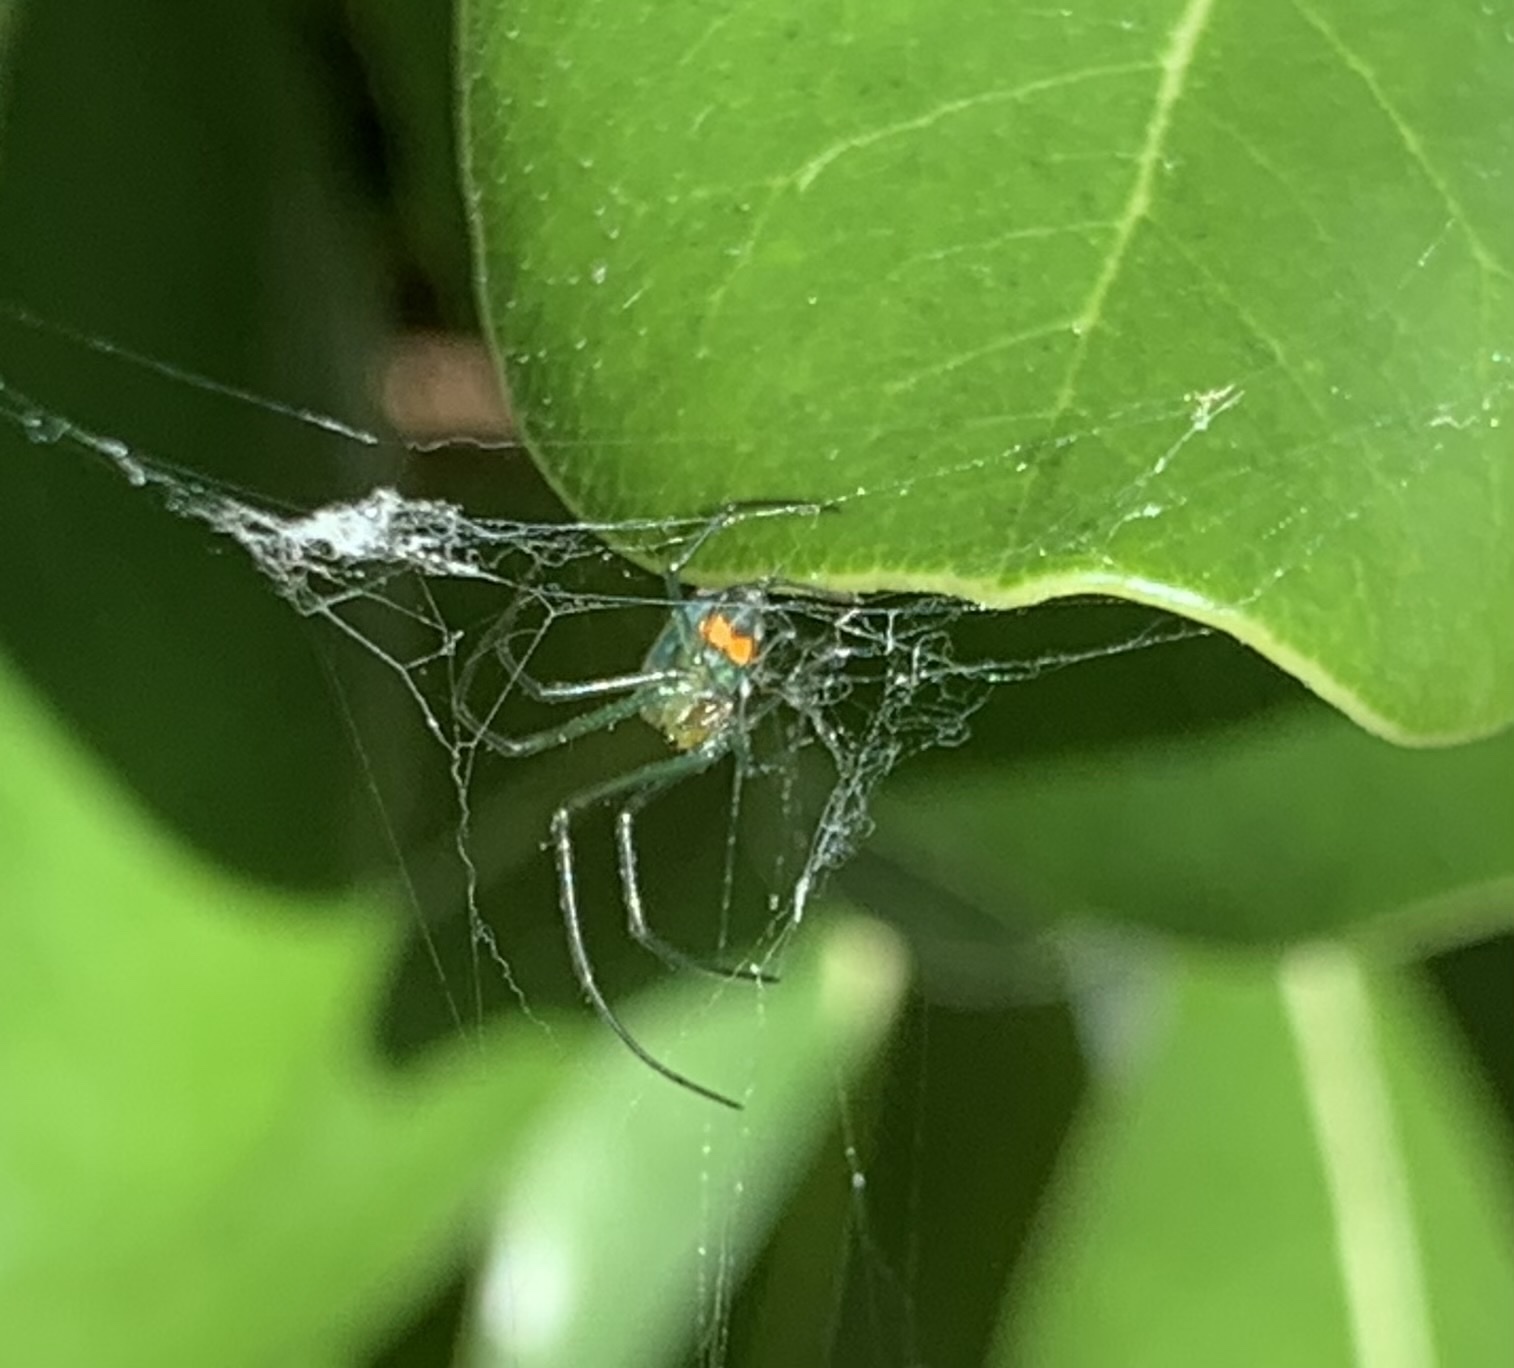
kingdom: Animalia
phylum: Arthropoda
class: Arachnida
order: Araneae
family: Tetragnathidae
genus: Leucauge
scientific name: Leucauge argyrobapta
